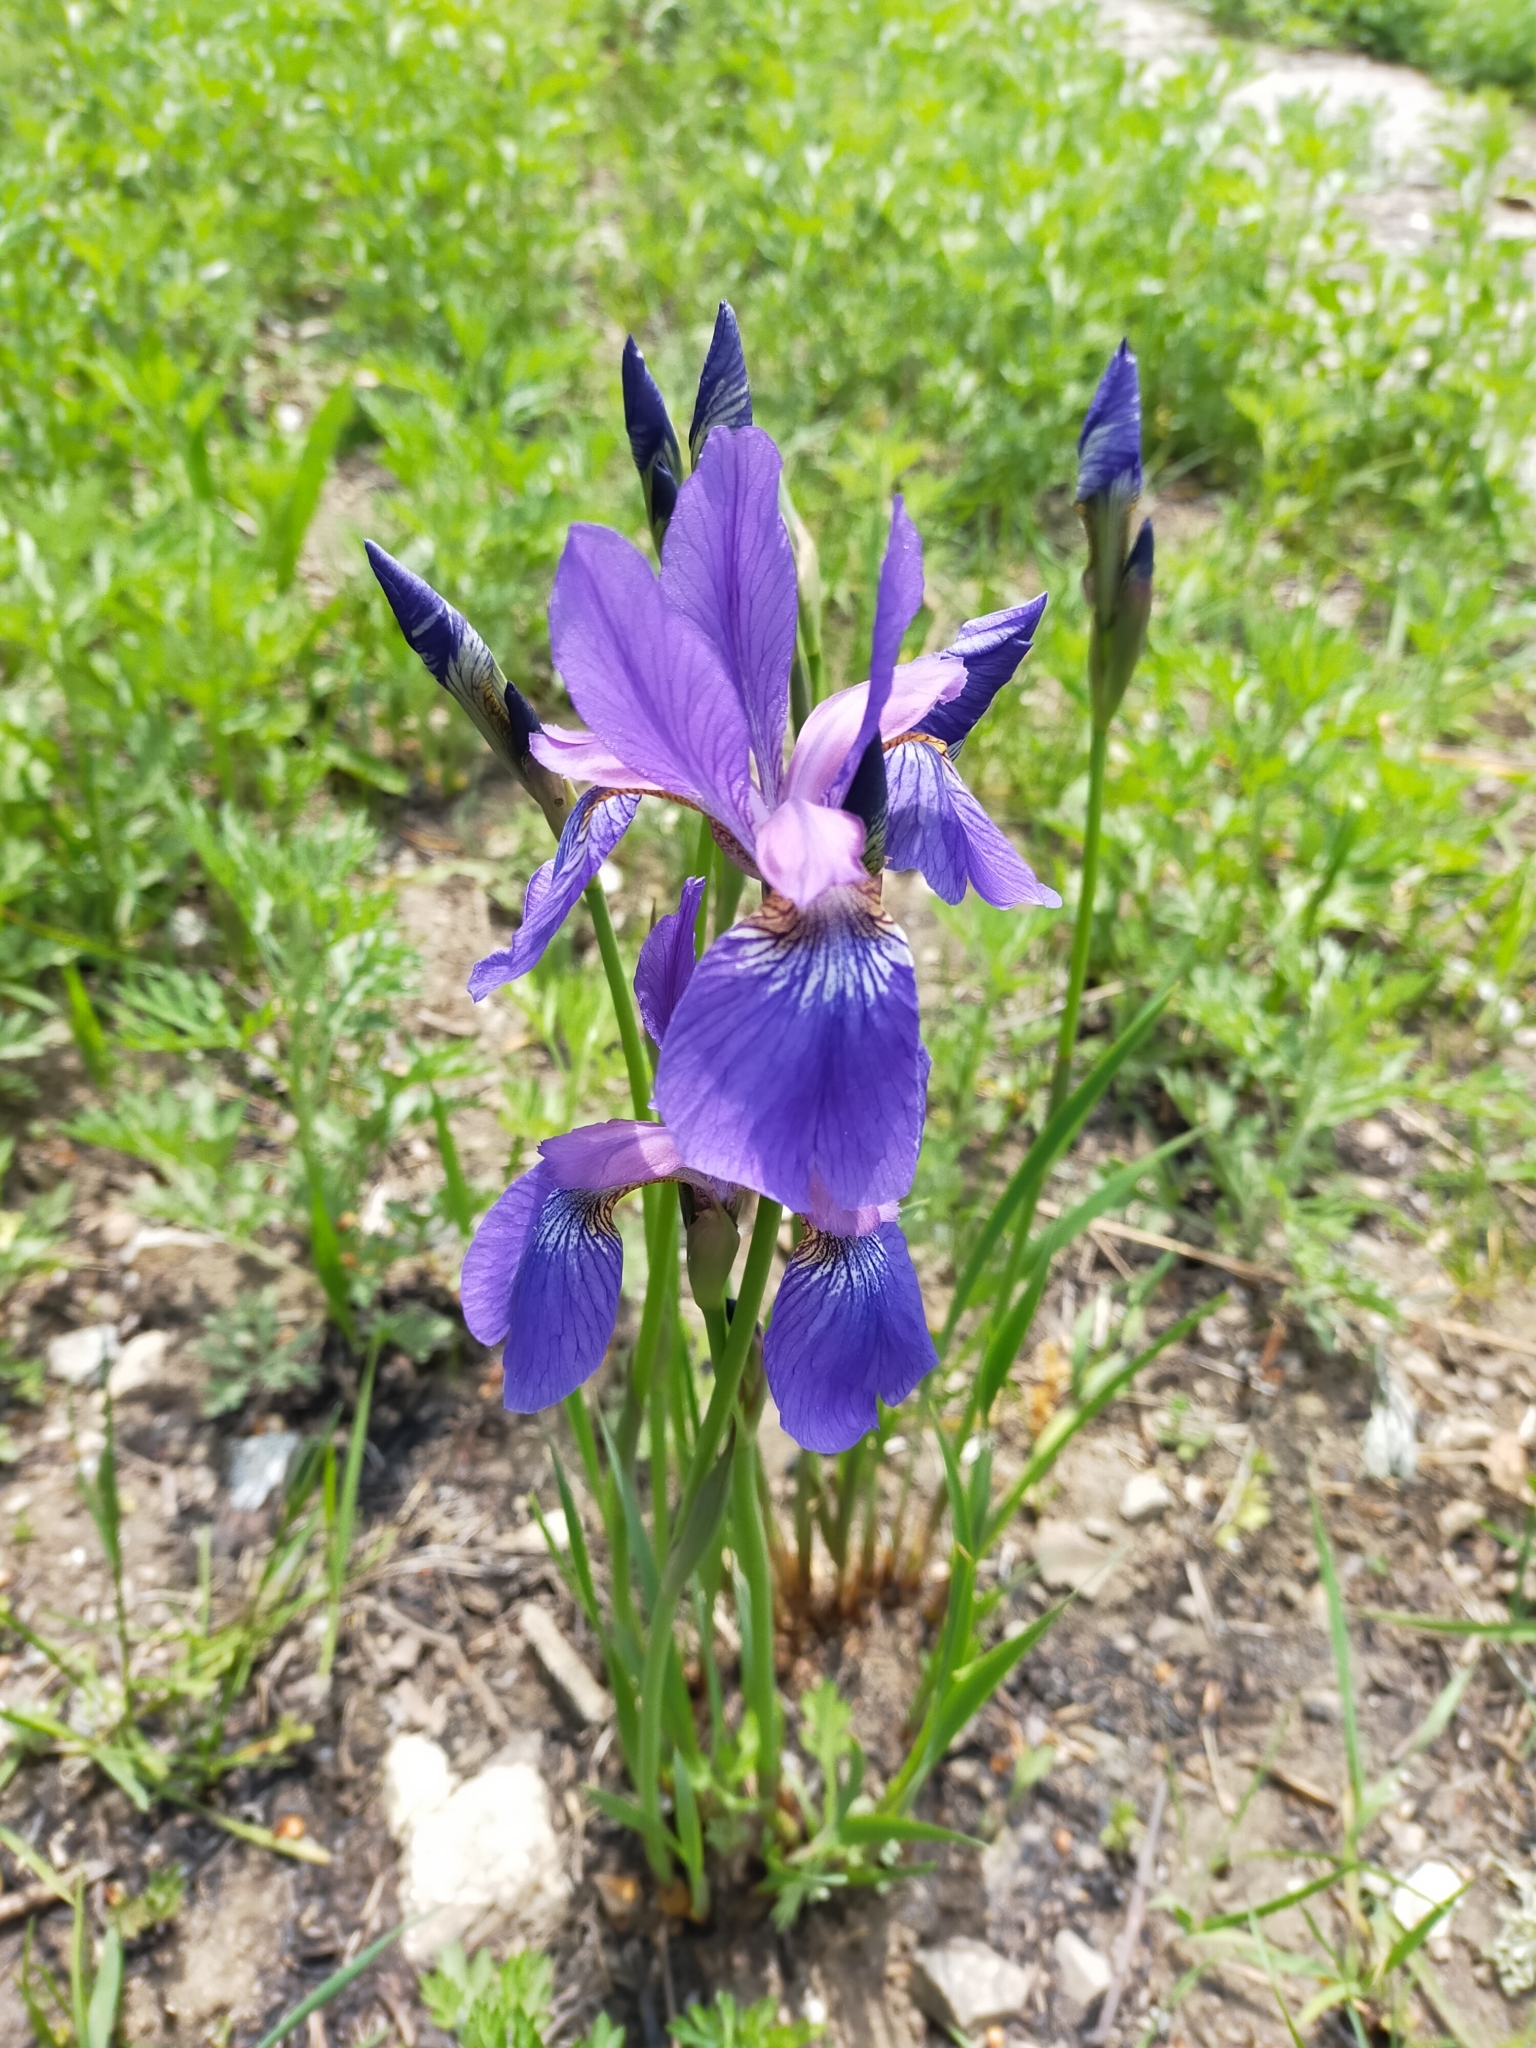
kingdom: Plantae
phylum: Tracheophyta
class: Liliopsida
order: Asparagales
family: Iridaceae
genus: Iris
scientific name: Iris sanguinea
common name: Blood iris
